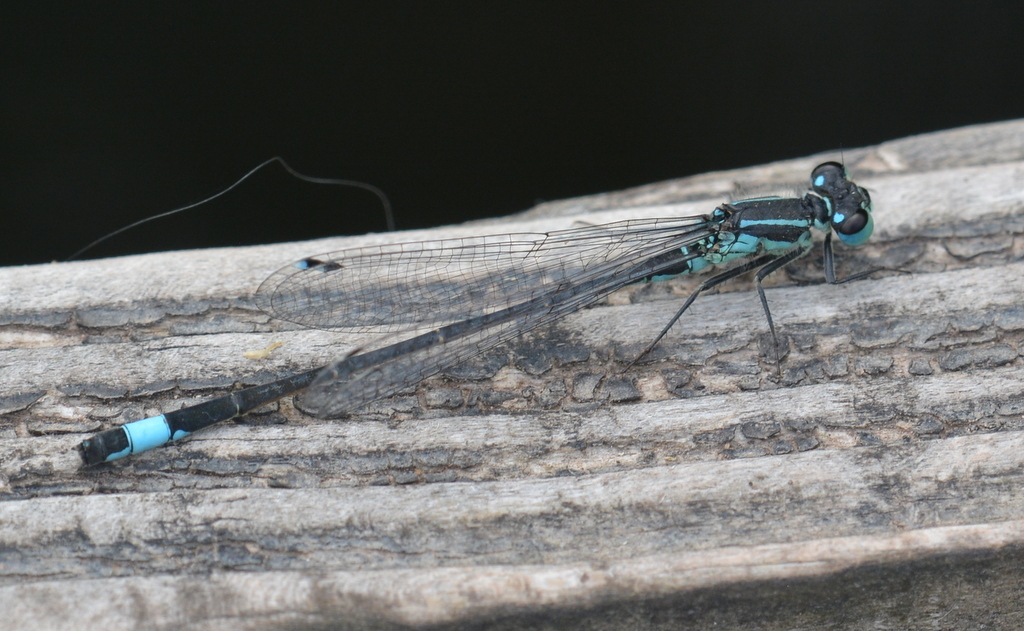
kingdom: Animalia
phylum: Arthropoda
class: Insecta
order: Odonata
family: Coenagrionidae
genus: Ischnura
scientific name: Ischnura elegans
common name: Blue-tailed damselfly
